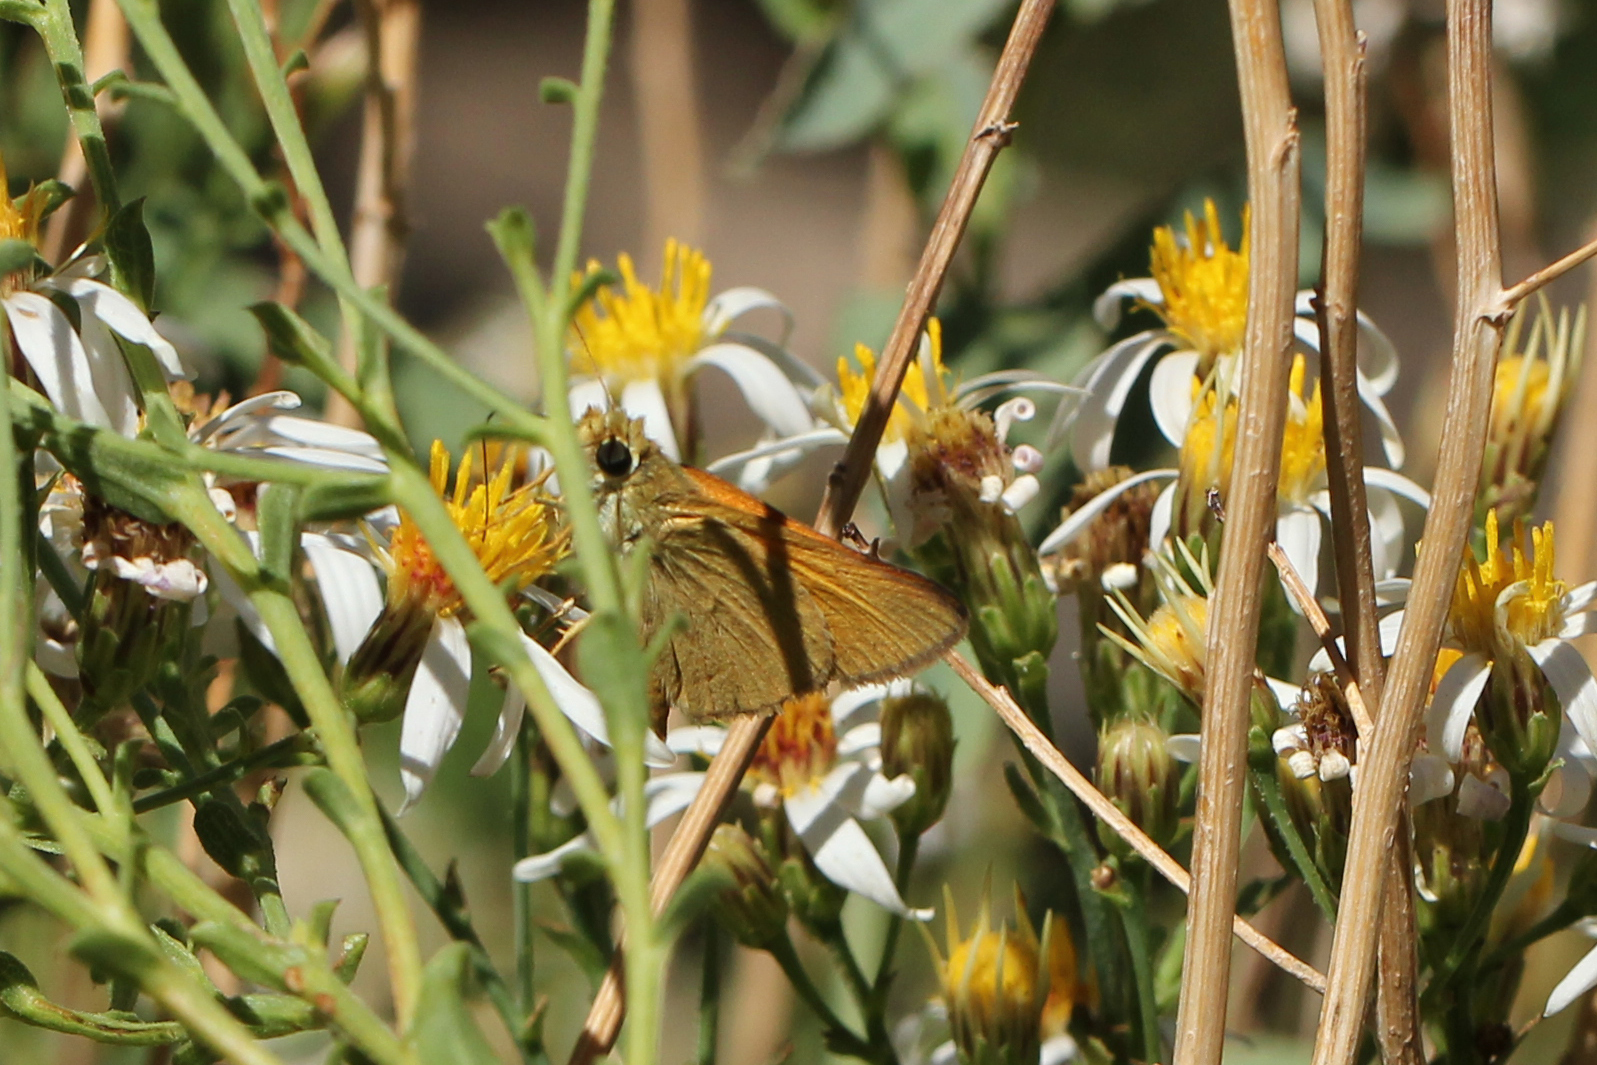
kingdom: Animalia
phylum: Arthropoda
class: Insecta
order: Lepidoptera
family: Hesperiidae
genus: Ochlodes
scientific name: Ochlodes sylvanoides
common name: Woodland skipper
